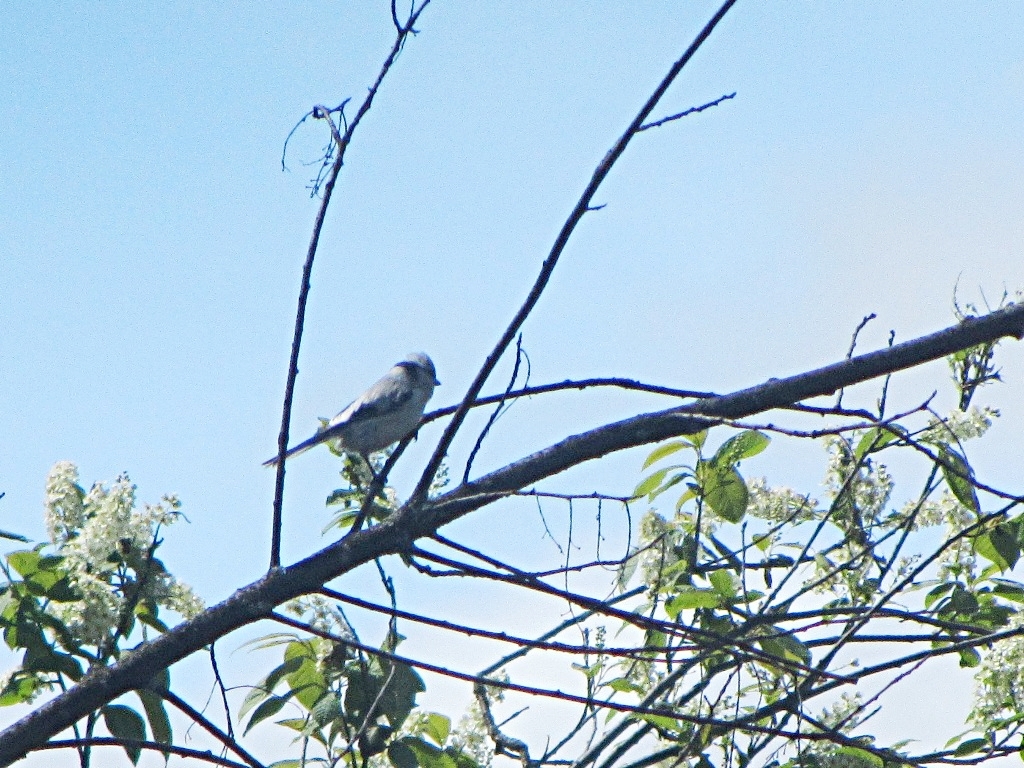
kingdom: Animalia
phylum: Chordata
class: Aves
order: Passeriformes
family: Paridae
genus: Cyanistes
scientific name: Cyanistes cyanus
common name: Azure tit
